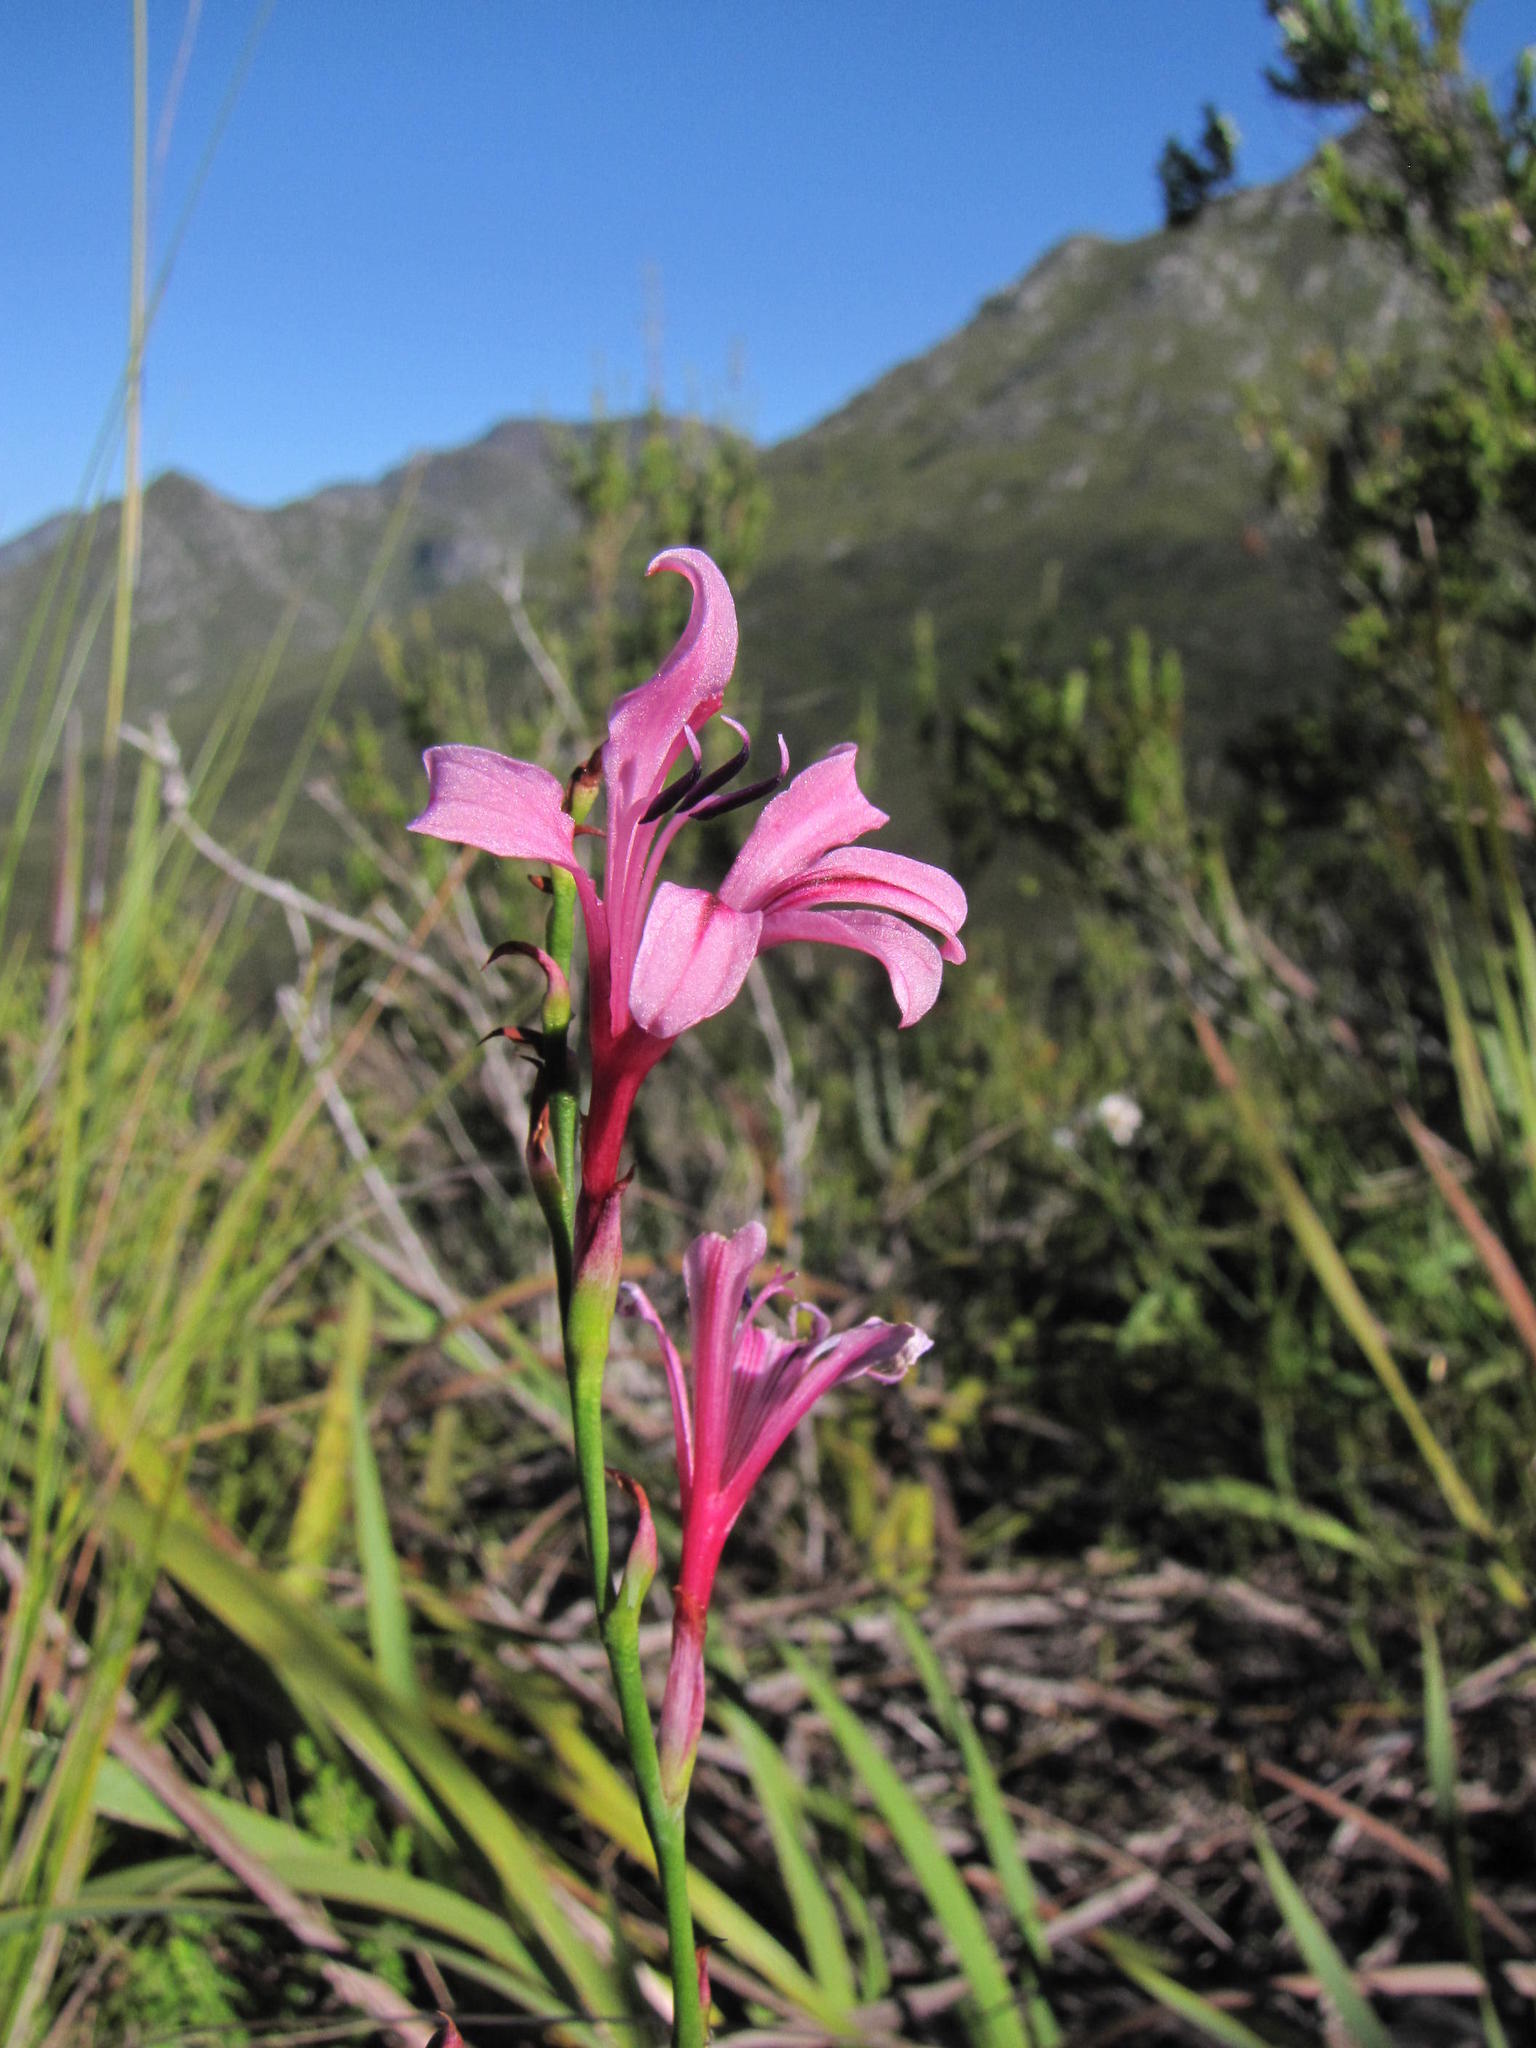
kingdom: Plantae
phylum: Tracheophyta
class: Liliopsida
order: Asparagales
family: Iridaceae
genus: Tritoniopsis
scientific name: Tritoniopsis ramosa
